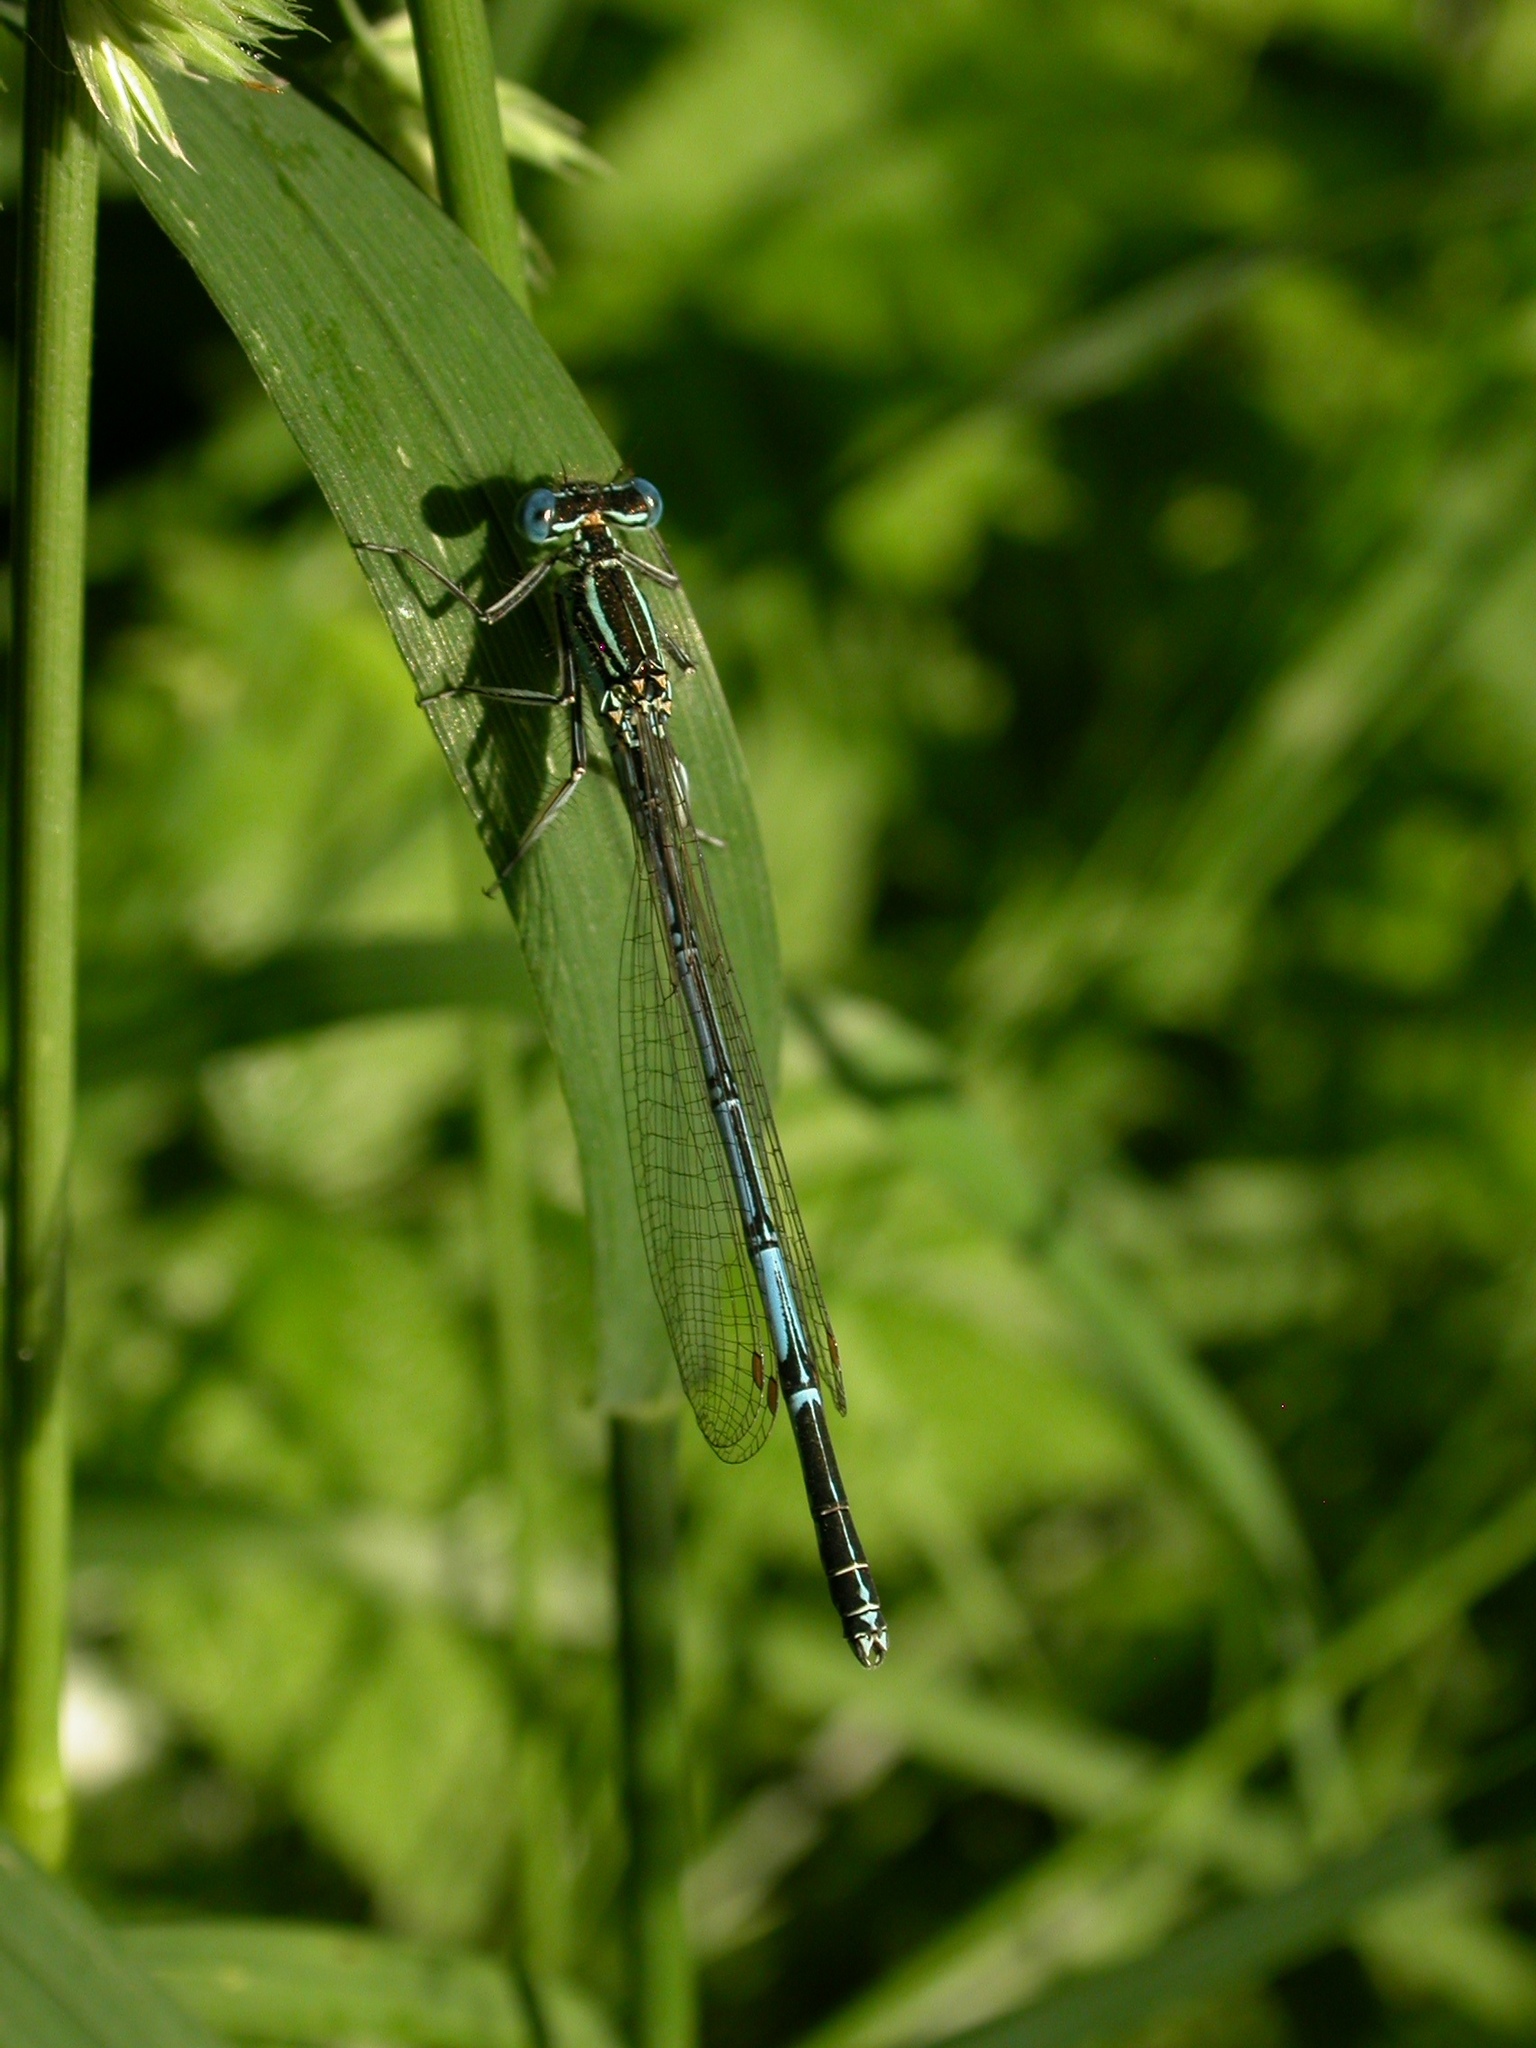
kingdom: Animalia
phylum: Arthropoda
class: Insecta
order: Odonata
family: Platycnemididae
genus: Platycnemis
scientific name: Platycnemis pennipes
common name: White-legged damselfly
